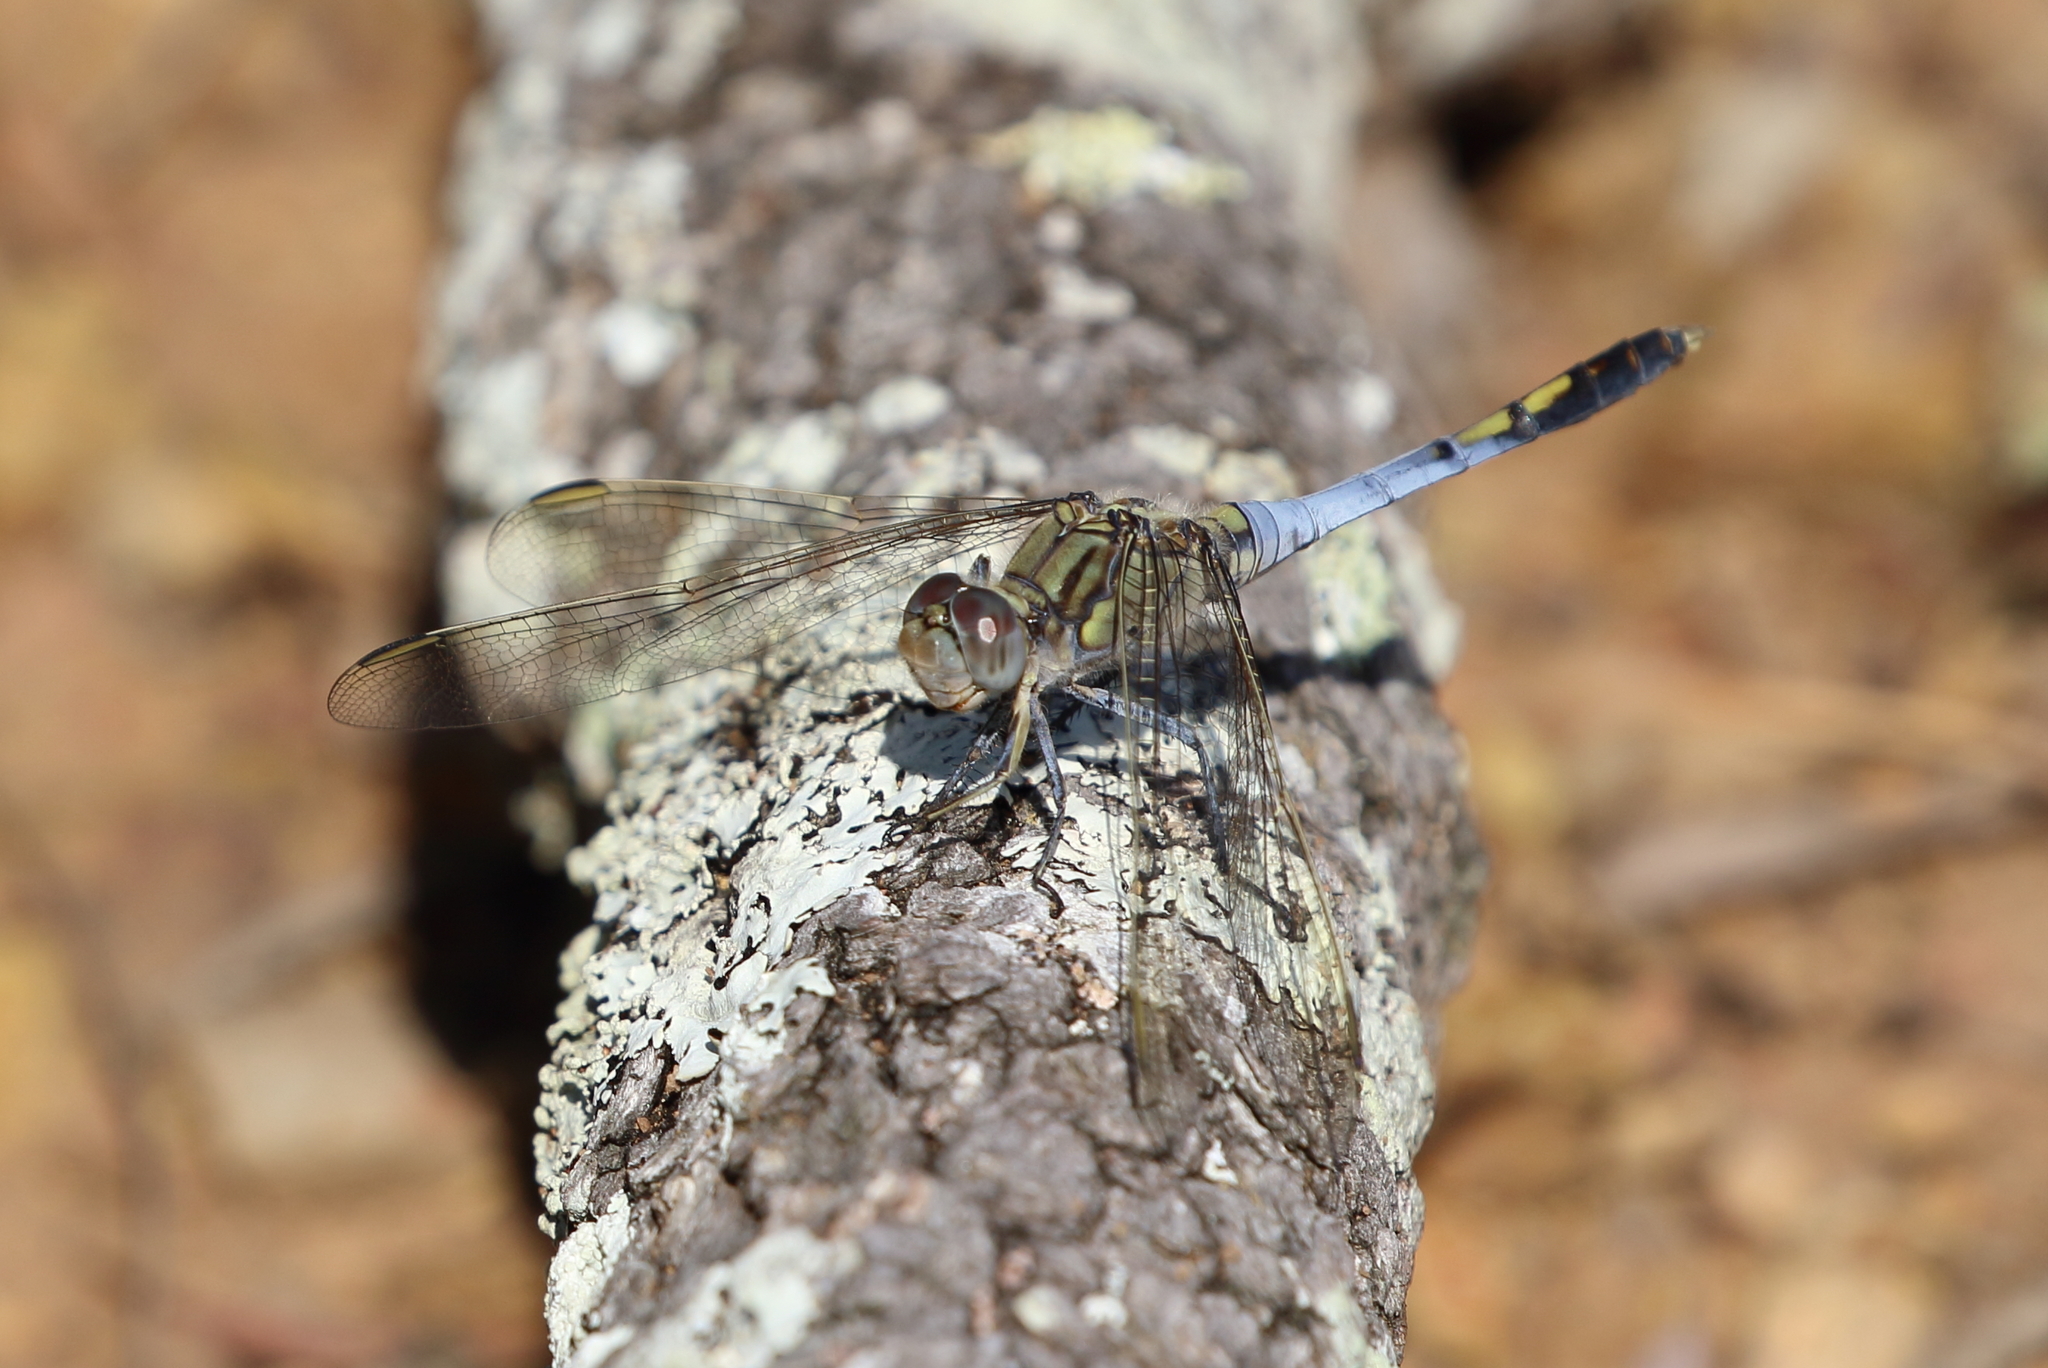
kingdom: Animalia
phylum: Arthropoda
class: Insecta
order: Odonata
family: Libellulidae
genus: Orthetrum
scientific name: Orthetrum caledonicum
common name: Blue skimmer
